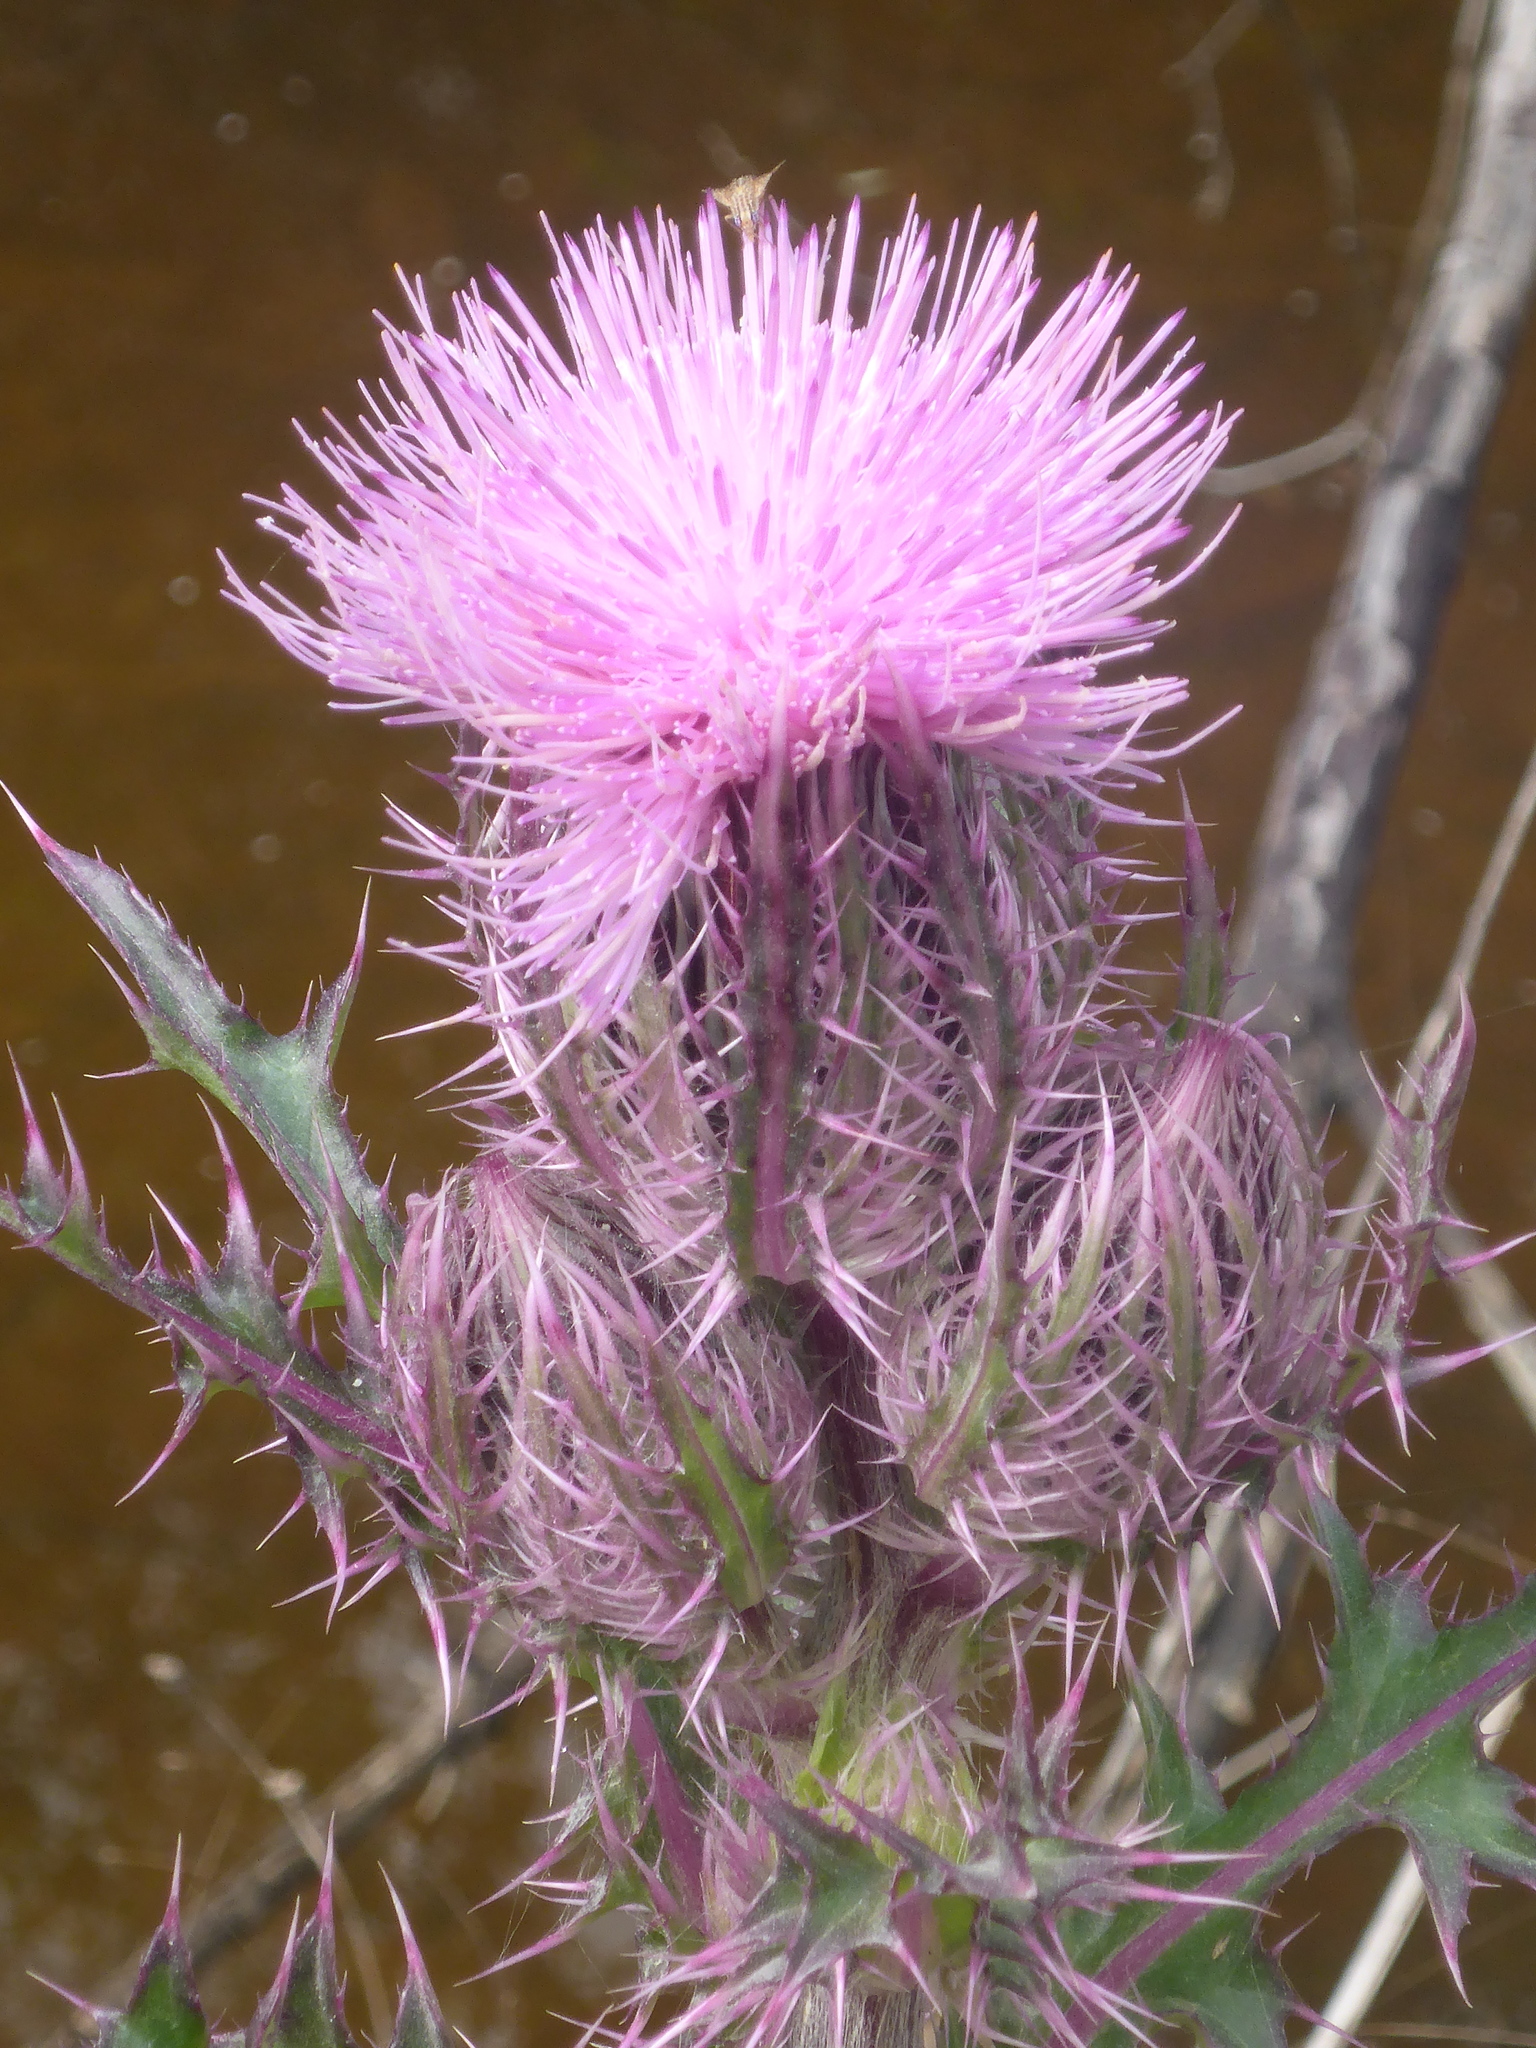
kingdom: Plantae
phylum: Tracheophyta
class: Magnoliopsida
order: Asterales
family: Asteraceae
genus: Cirsium
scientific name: Cirsium horridulum
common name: Bristly thistle
